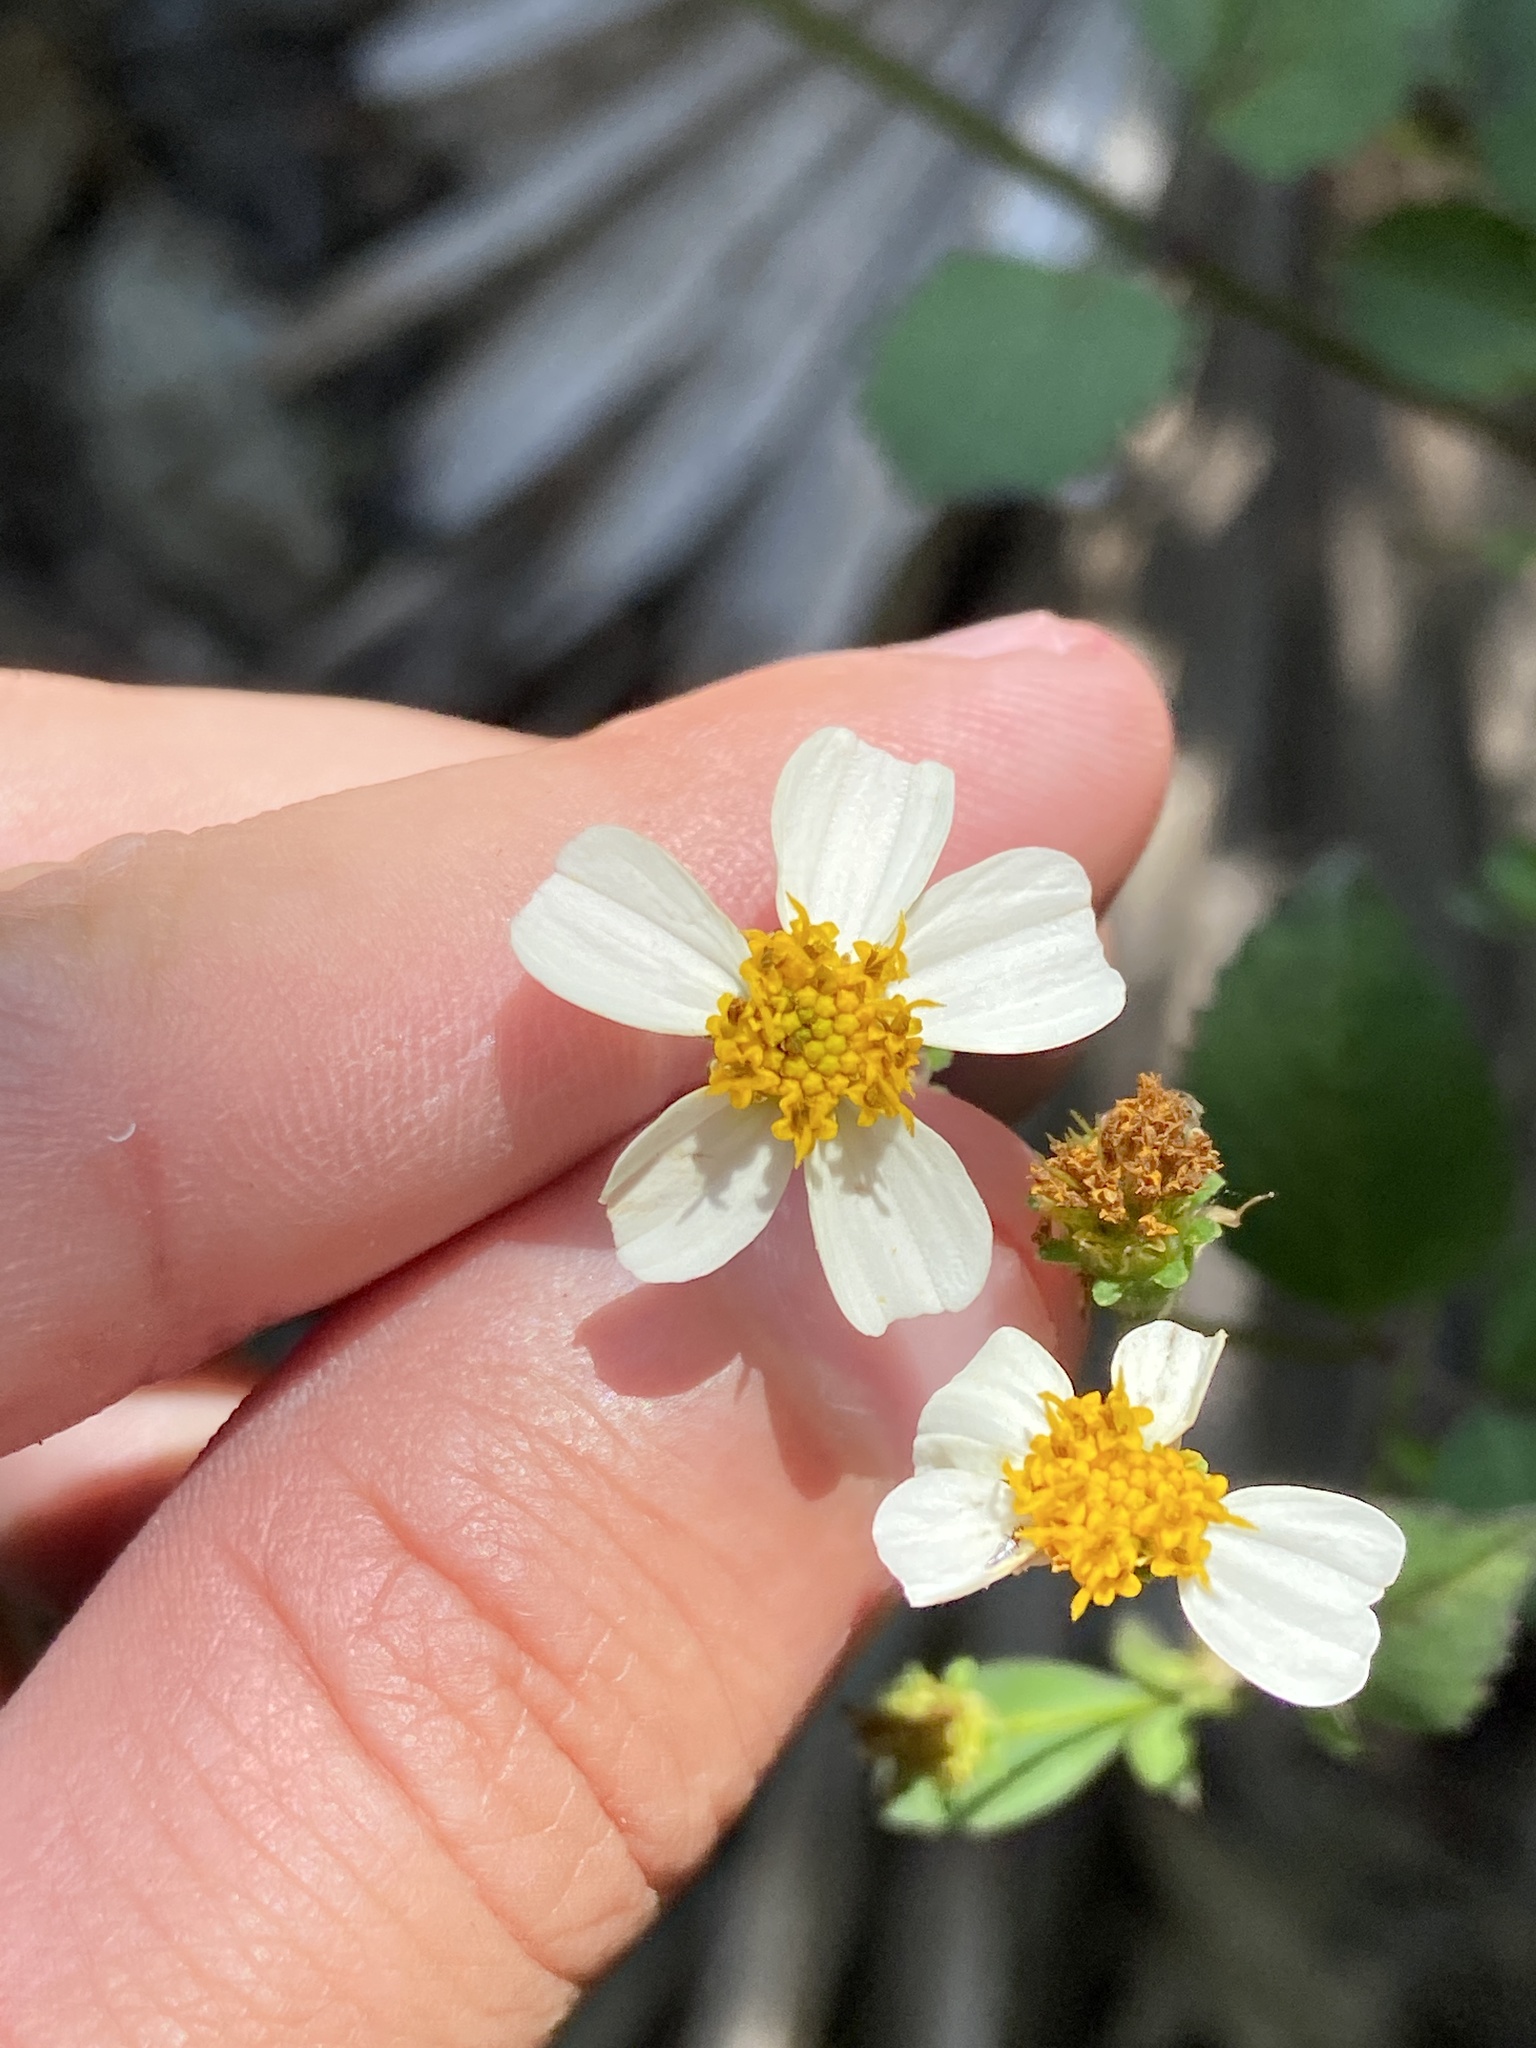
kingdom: Plantae
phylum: Tracheophyta
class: Magnoliopsida
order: Asterales
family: Asteraceae
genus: Bidens
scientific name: Bidens alba
